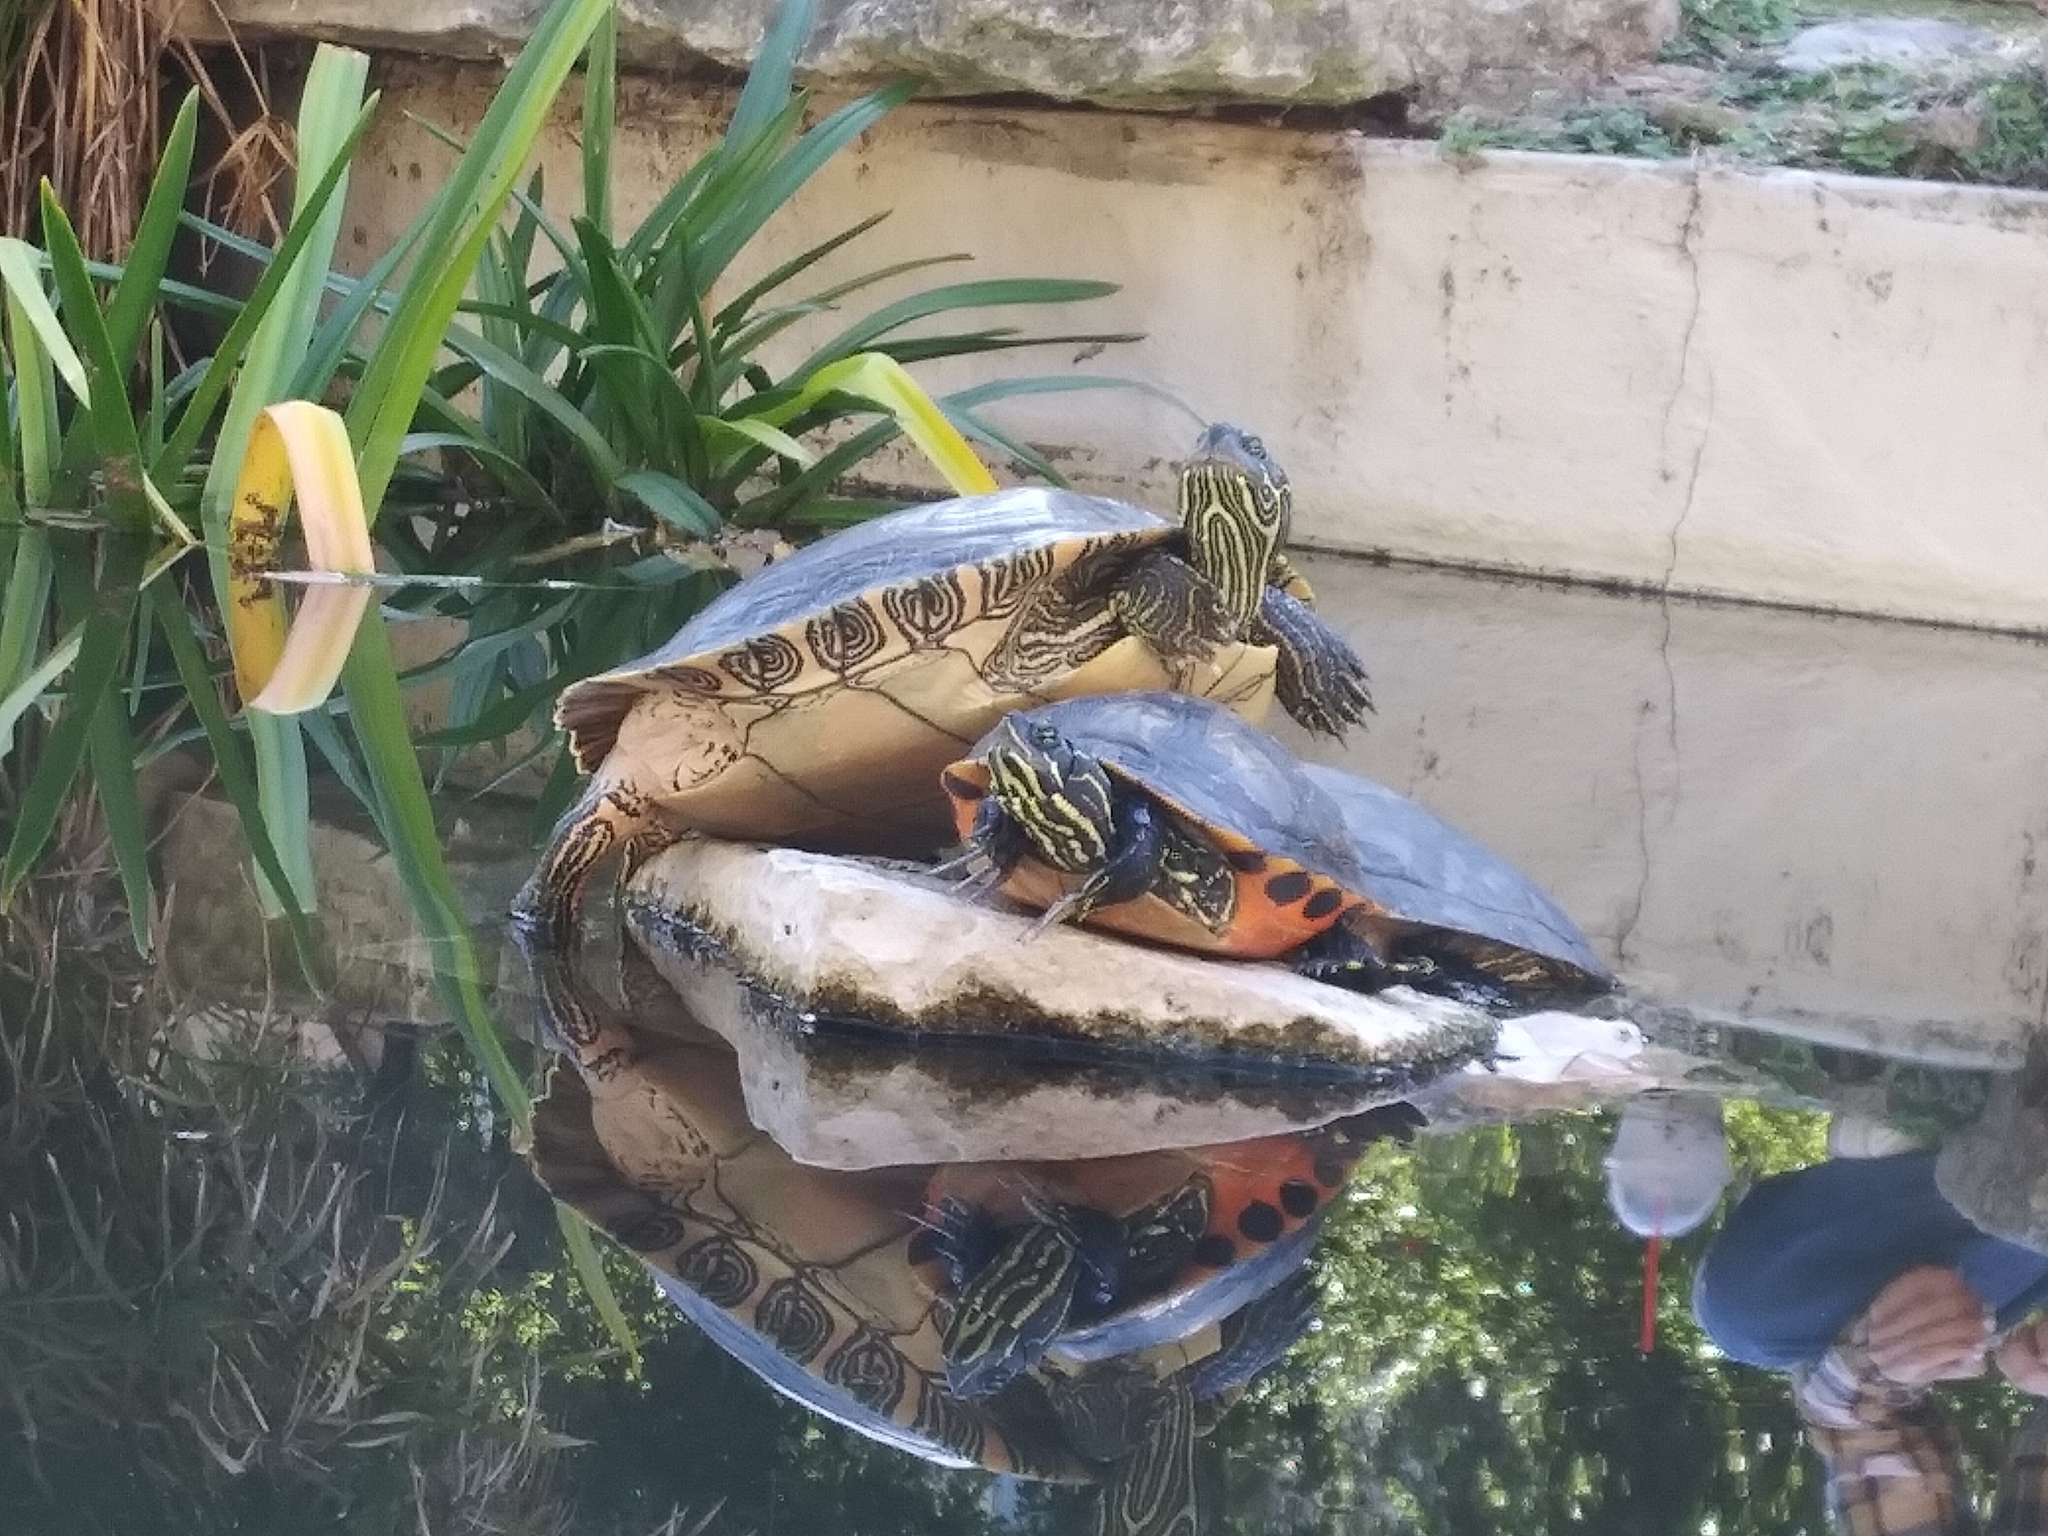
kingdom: Animalia
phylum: Chordata
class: Testudines
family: Emydidae
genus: Pseudemys
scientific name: Pseudemys nelsoni
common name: Florida red-bellied turtle
